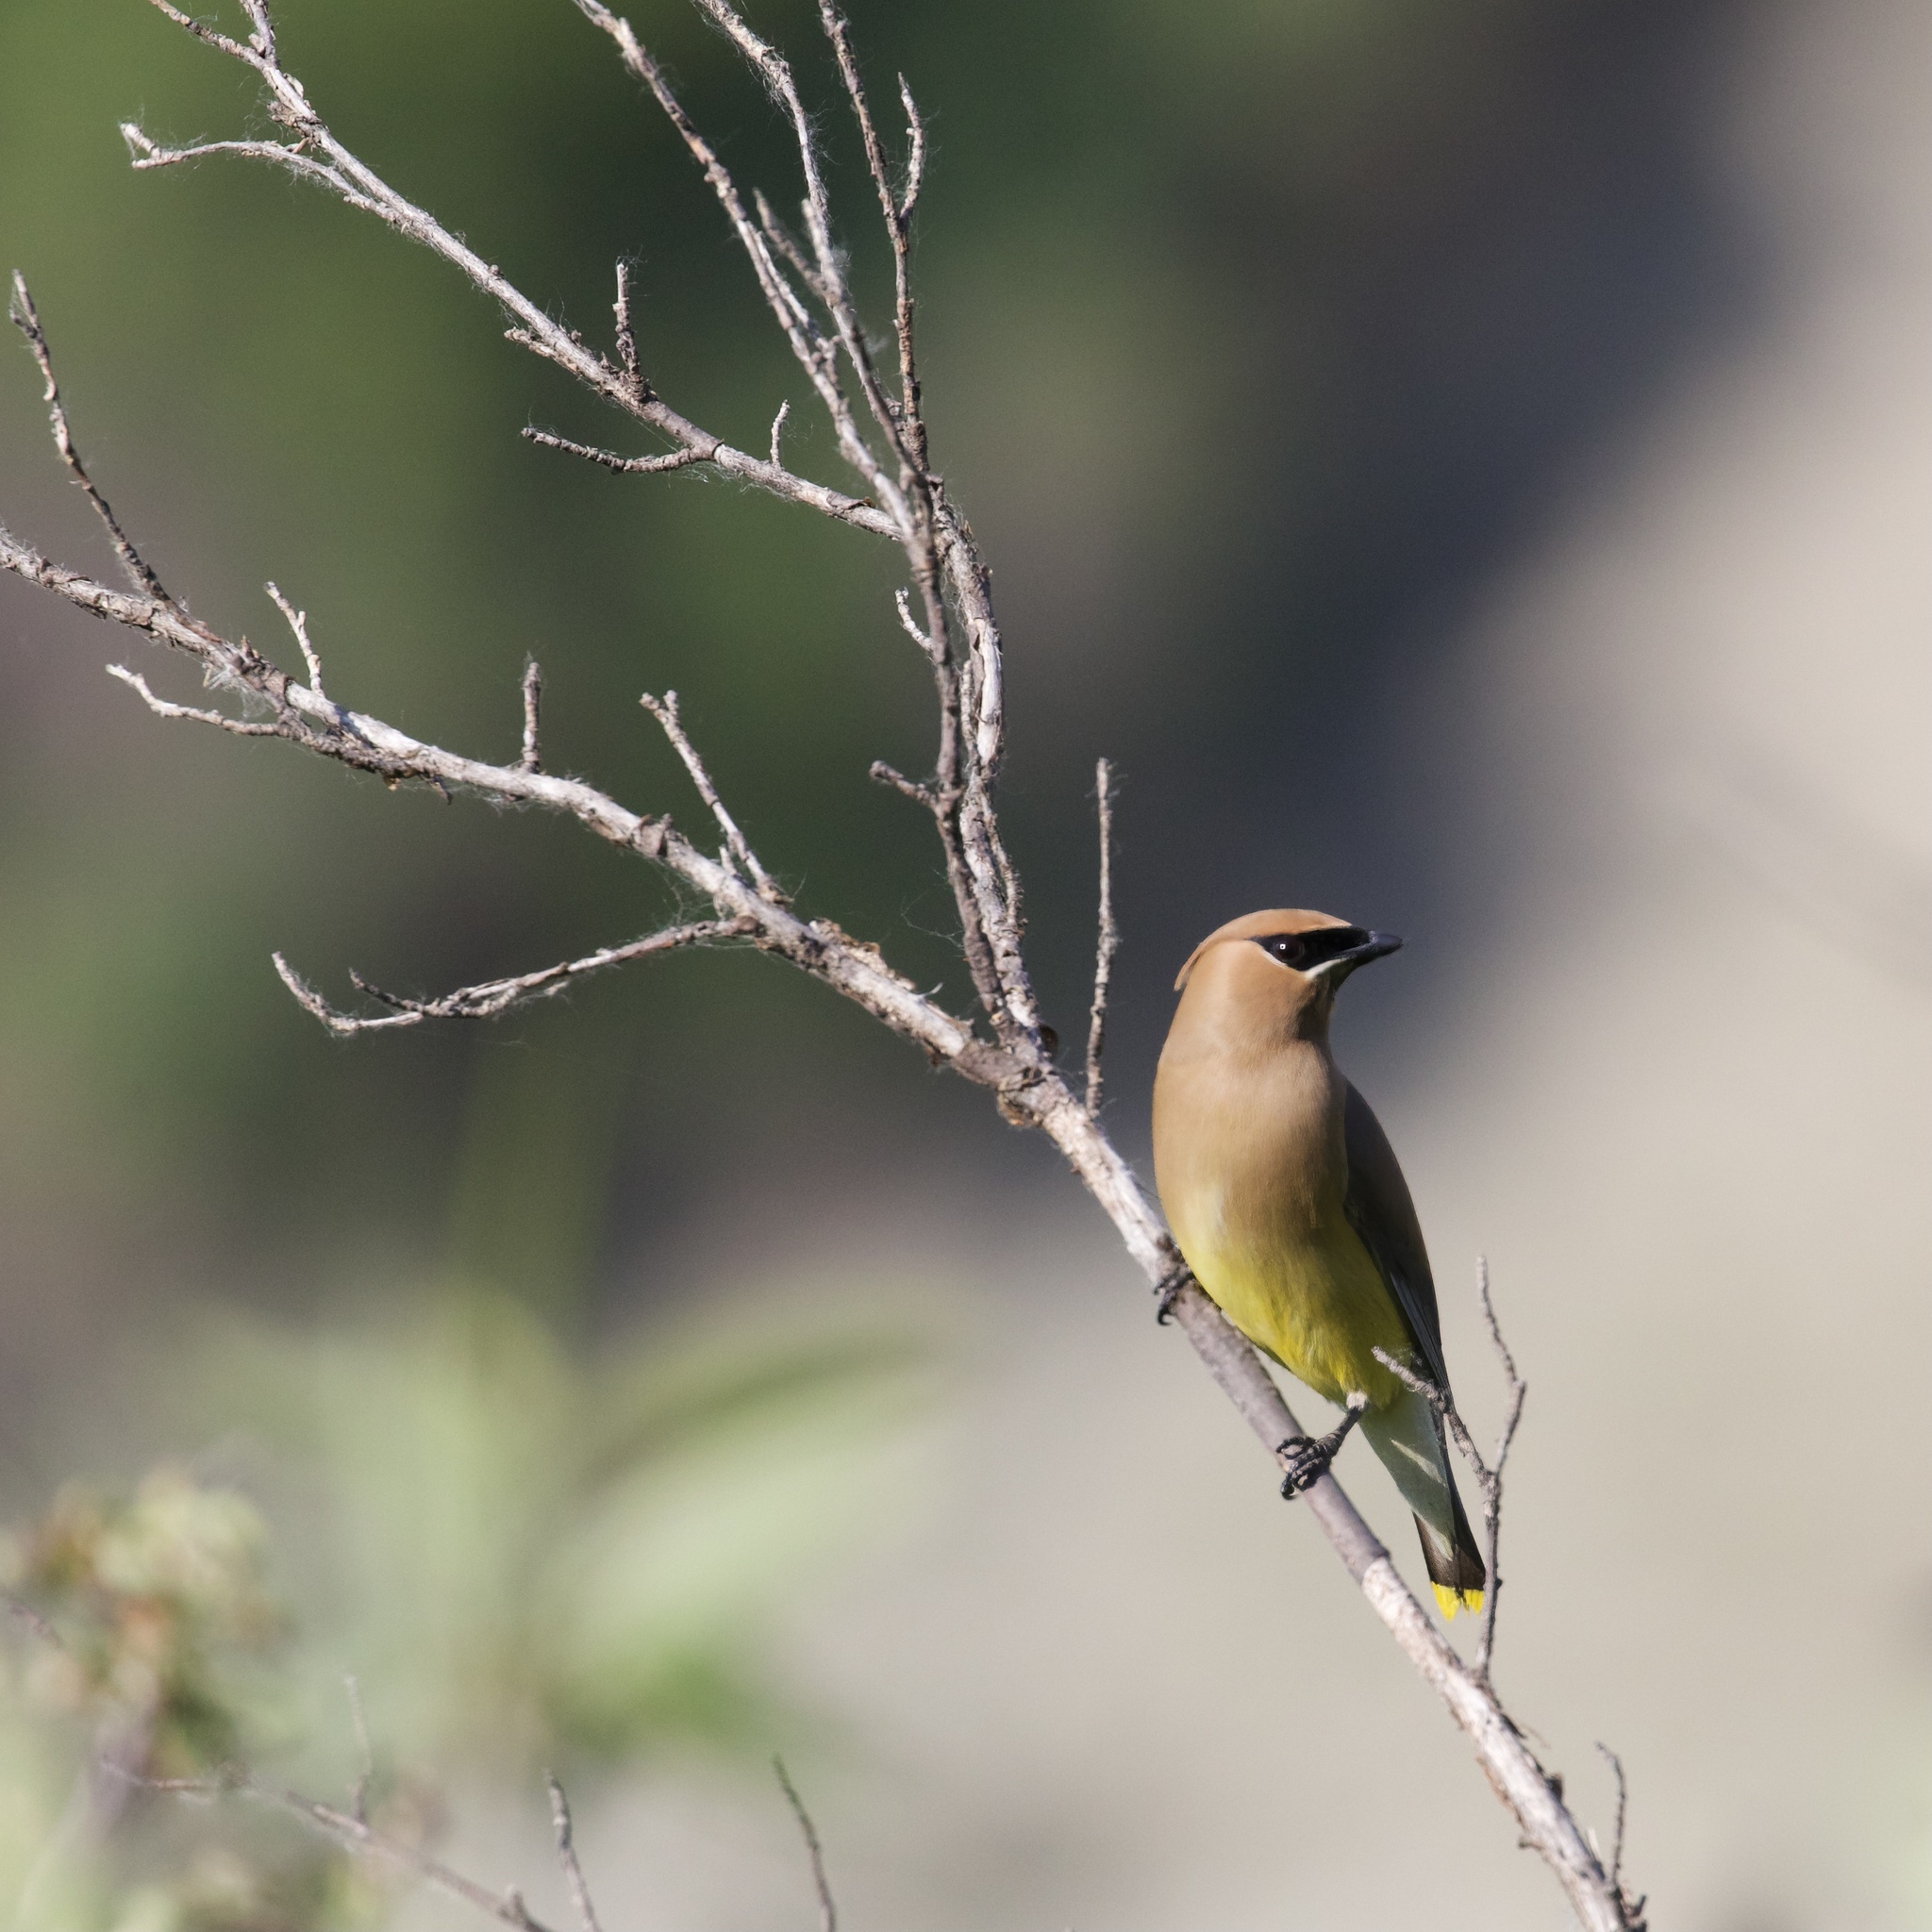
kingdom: Animalia
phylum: Chordata
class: Aves
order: Passeriformes
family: Bombycillidae
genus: Bombycilla
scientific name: Bombycilla cedrorum
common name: Cedar waxwing
